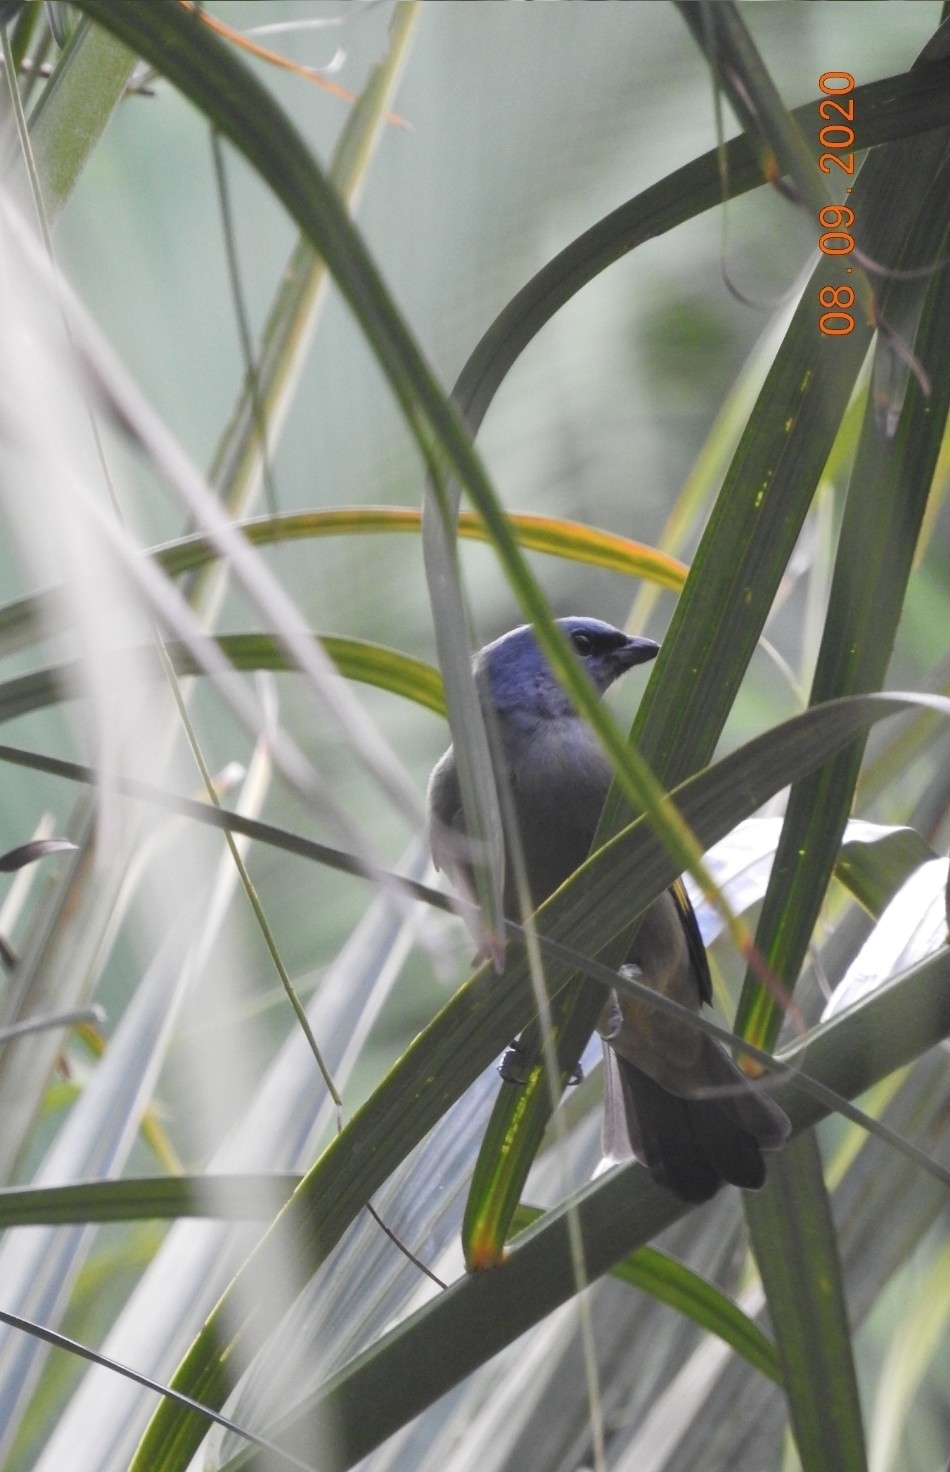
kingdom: Animalia
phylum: Chordata
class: Aves
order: Passeriformes
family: Thraupidae
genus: Thraupis
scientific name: Thraupis abbas
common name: Yellow-winged tanager
